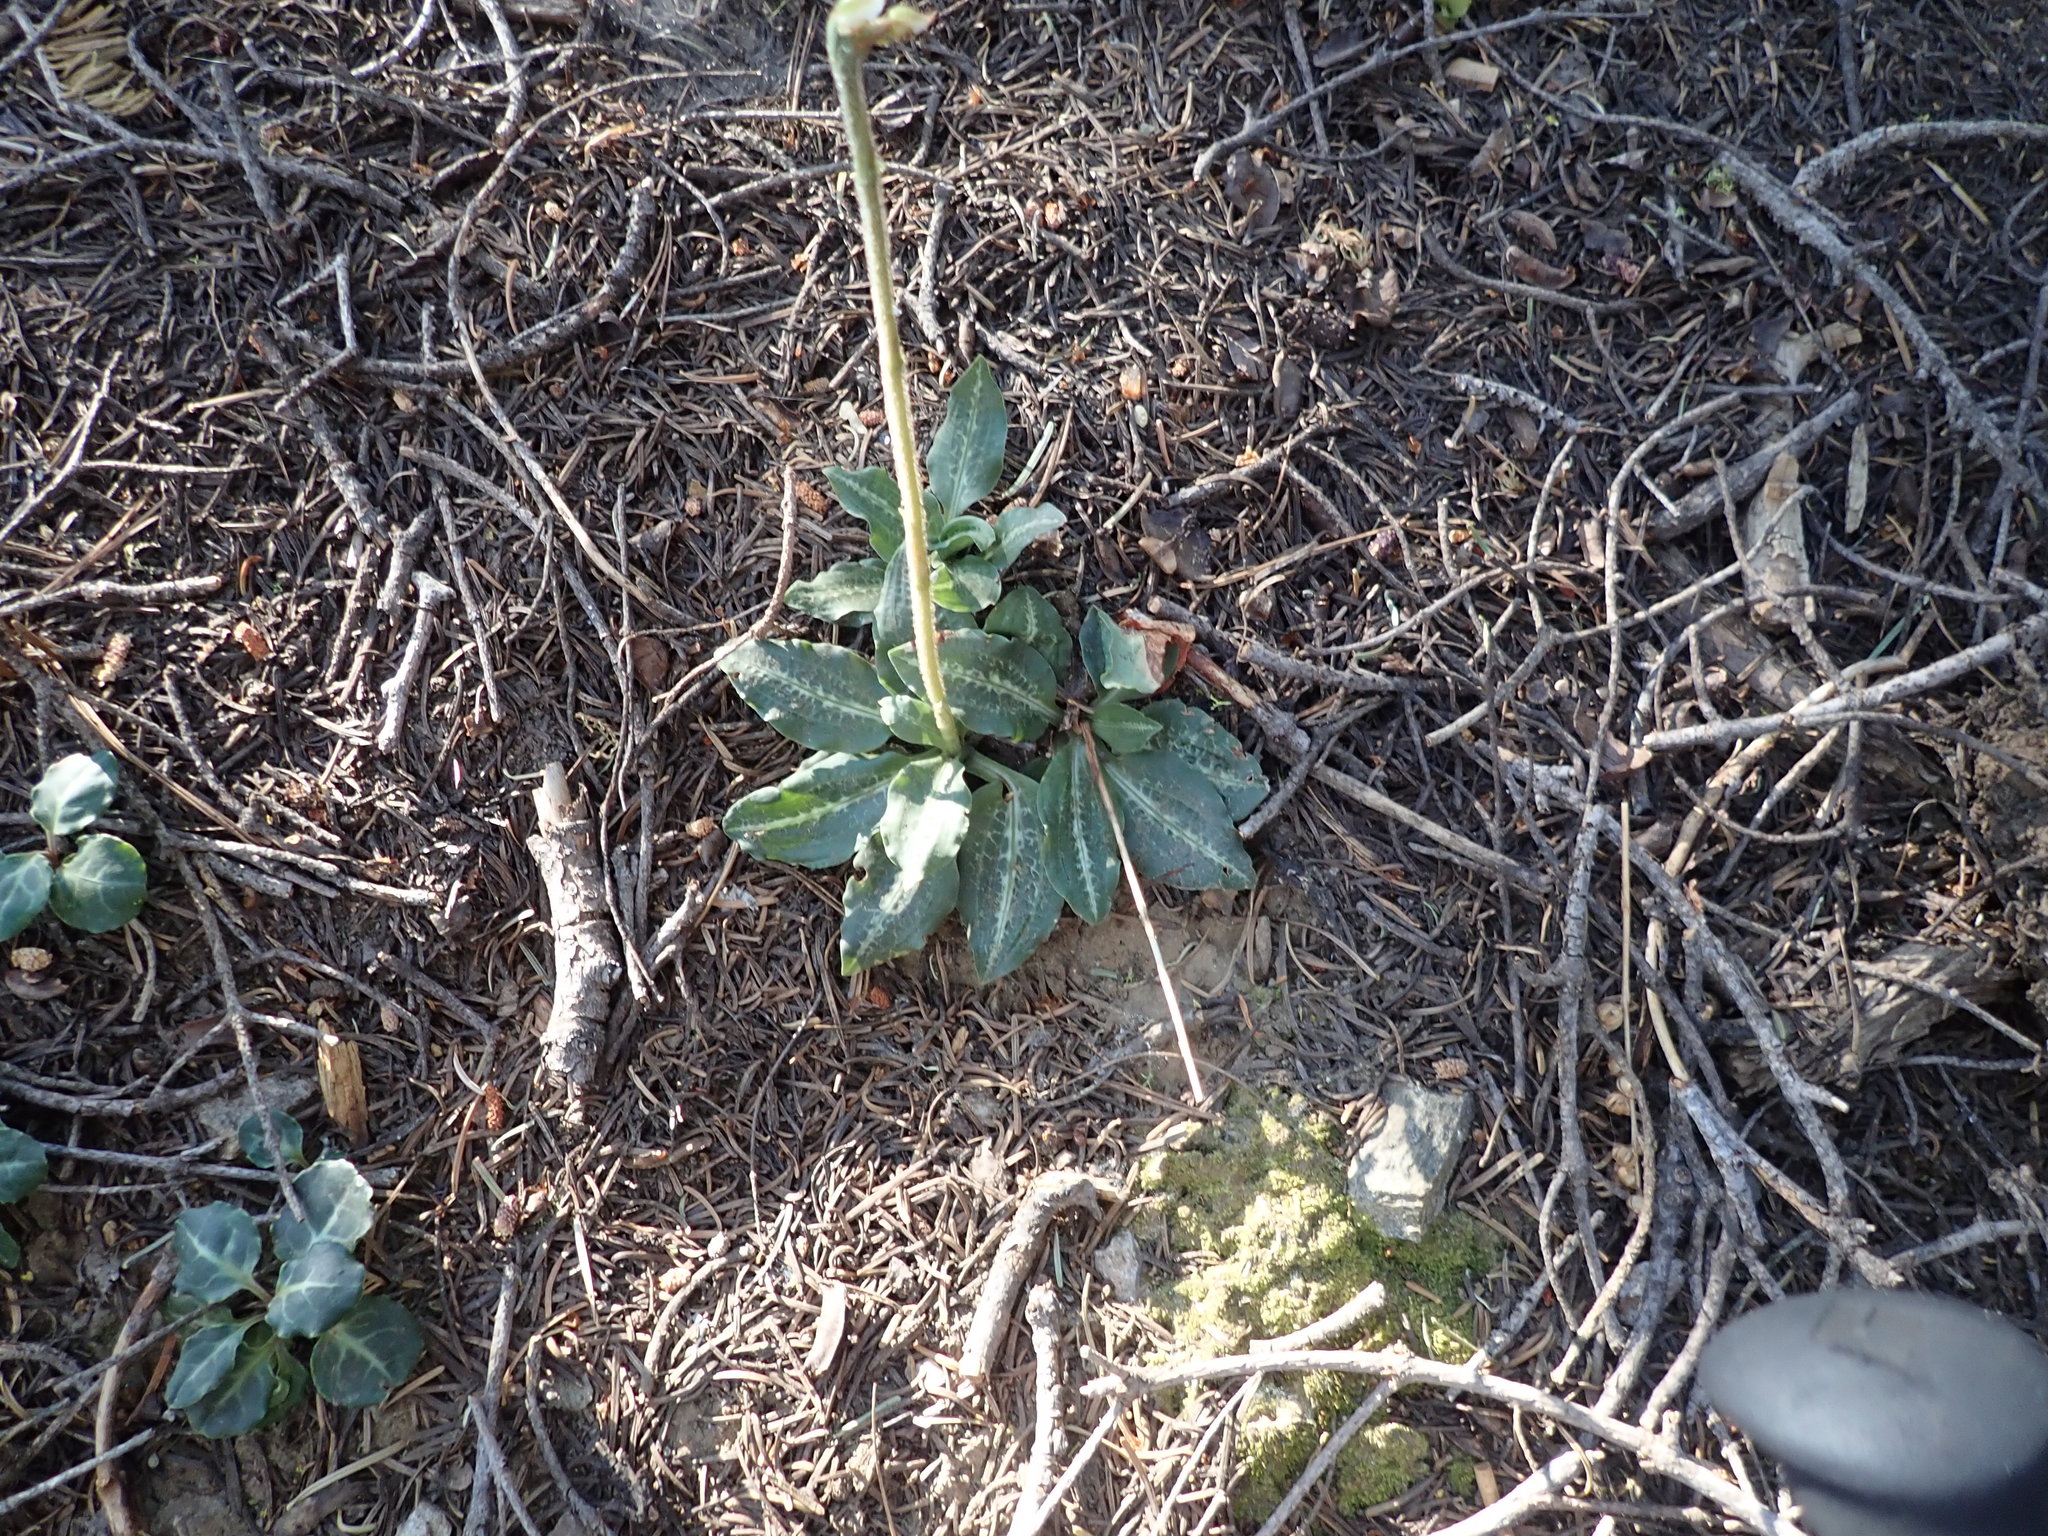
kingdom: Plantae
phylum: Tracheophyta
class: Liliopsida
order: Asparagales
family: Orchidaceae
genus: Goodyera
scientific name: Goodyera oblongifolia
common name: Giant rattlesnake-plantain
